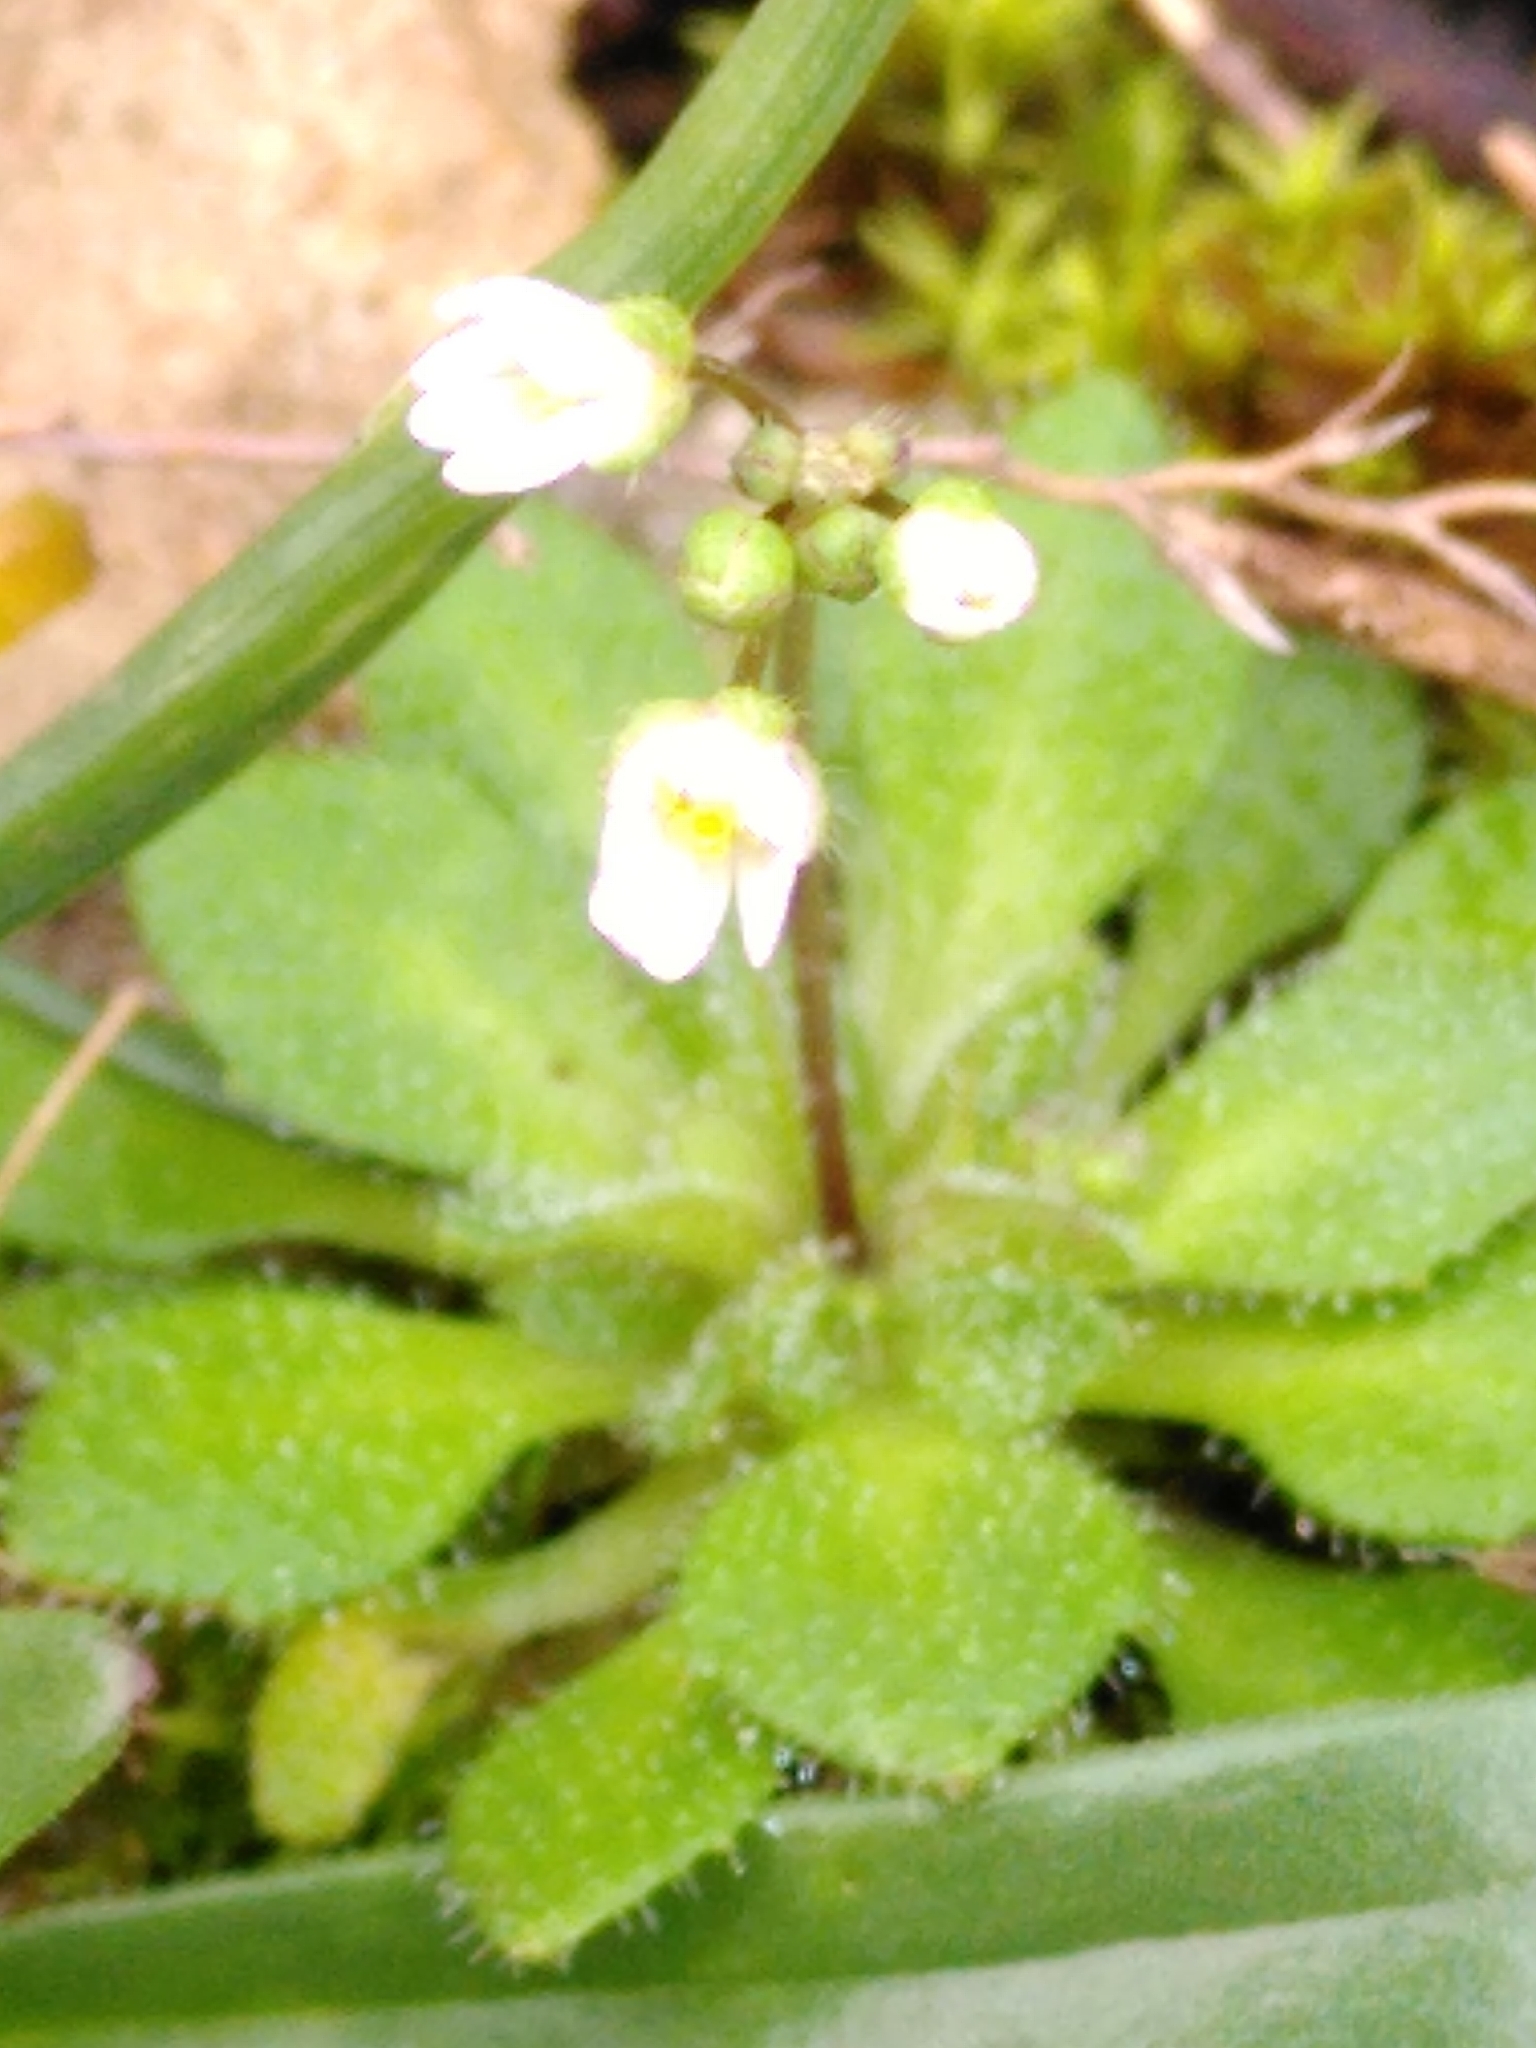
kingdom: Plantae
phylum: Tracheophyta
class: Magnoliopsida
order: Brassicales
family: Brassicaceae
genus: Draba
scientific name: Draba verna
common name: Spring draba
